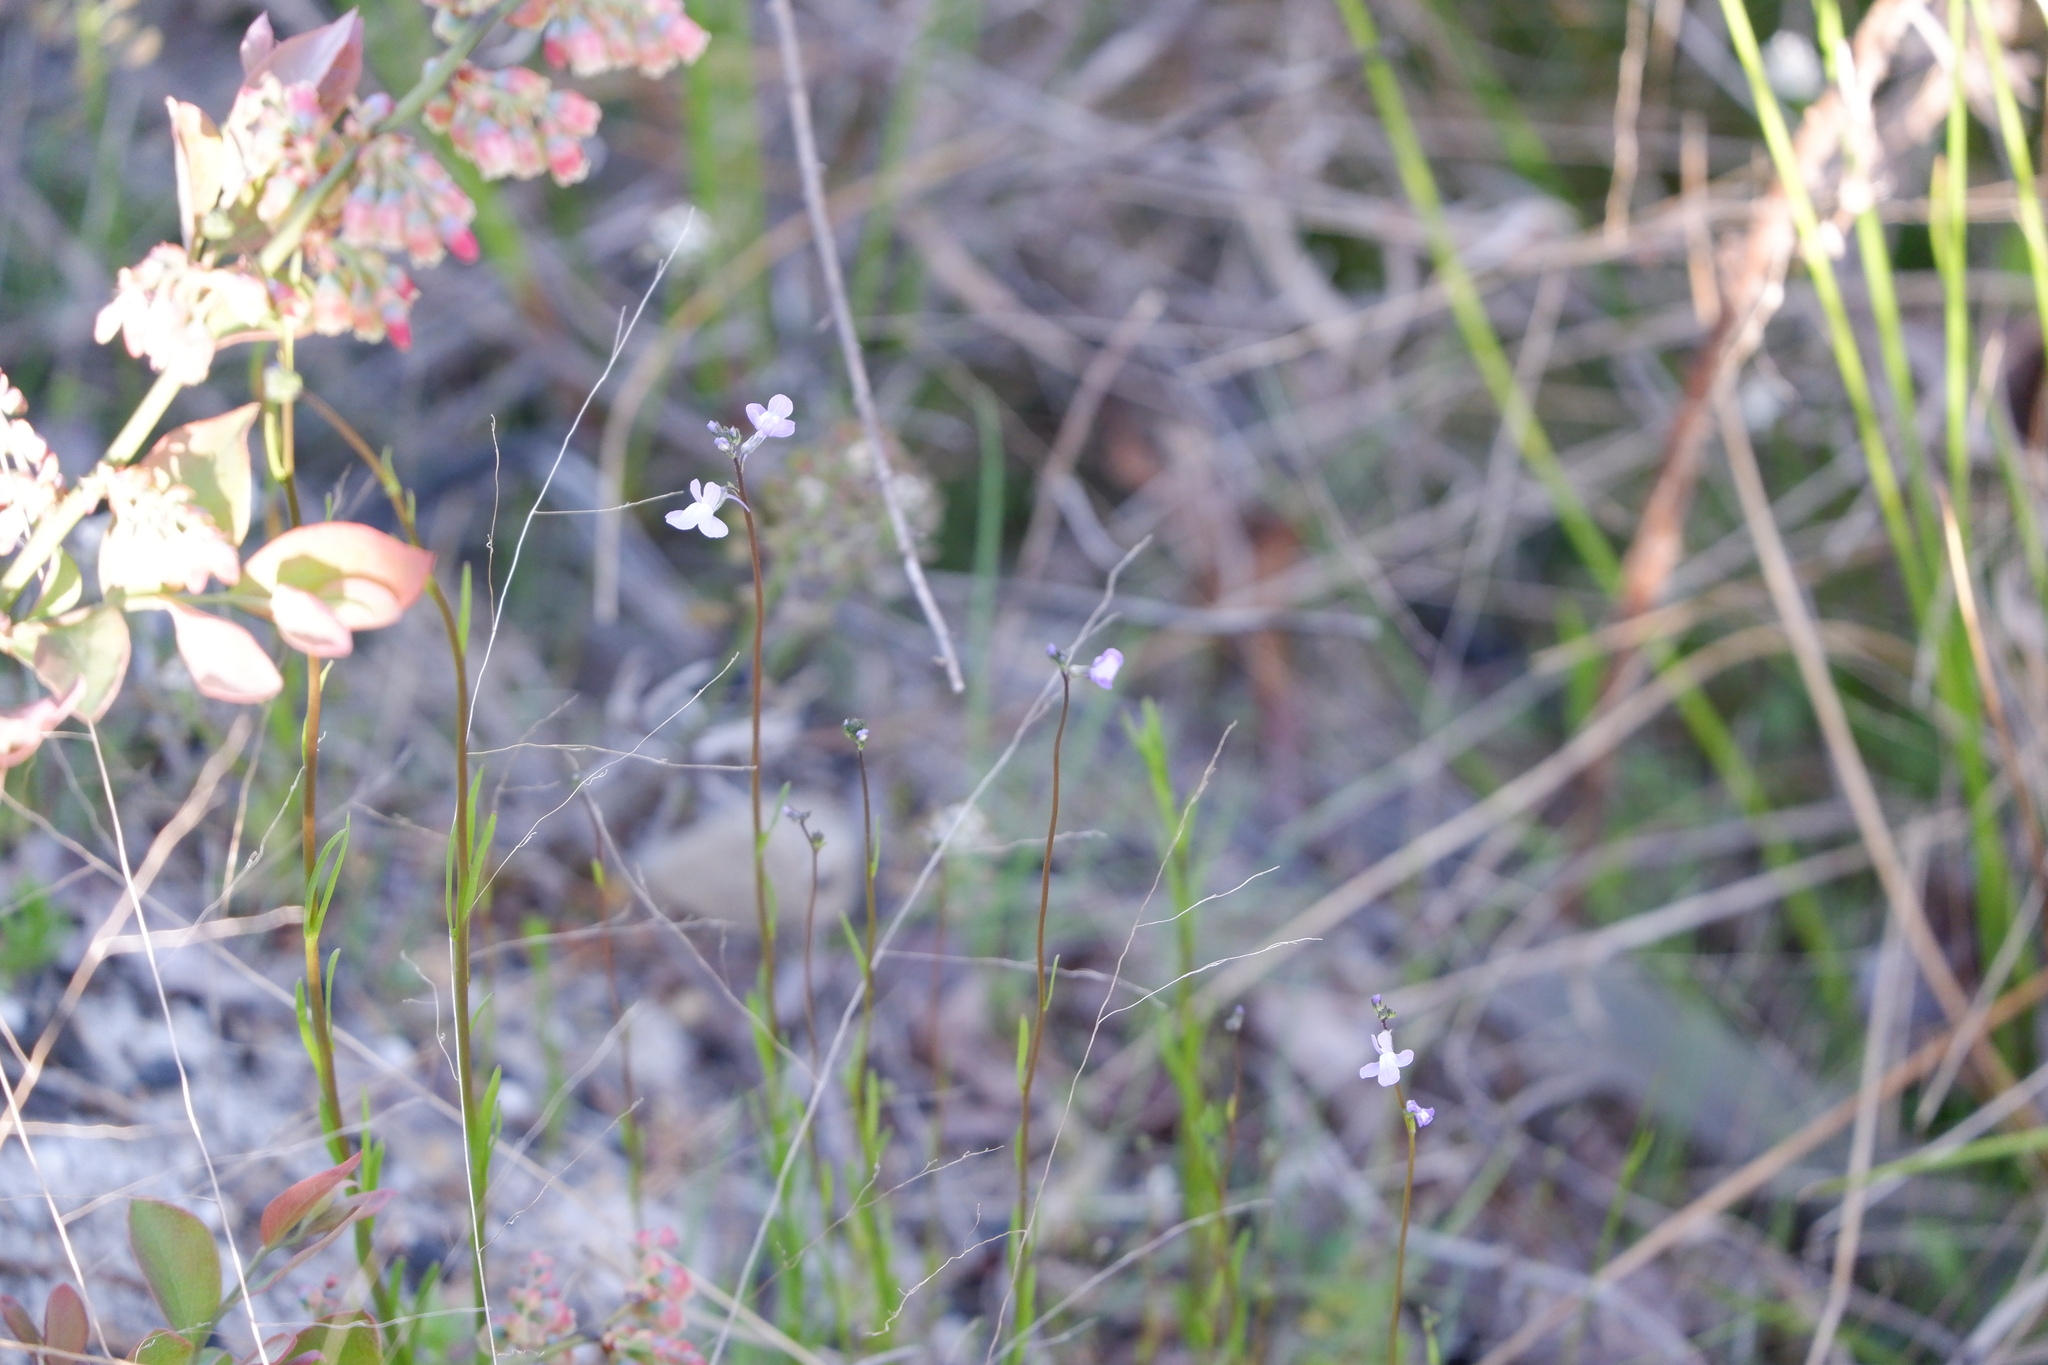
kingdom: Plantae
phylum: Tracheophyta
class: Magnoliopsida
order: Lamiales
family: Plantaginaceae
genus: Nuttallanthus
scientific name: Nuttallanthus canadensis
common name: Blue toadflax
